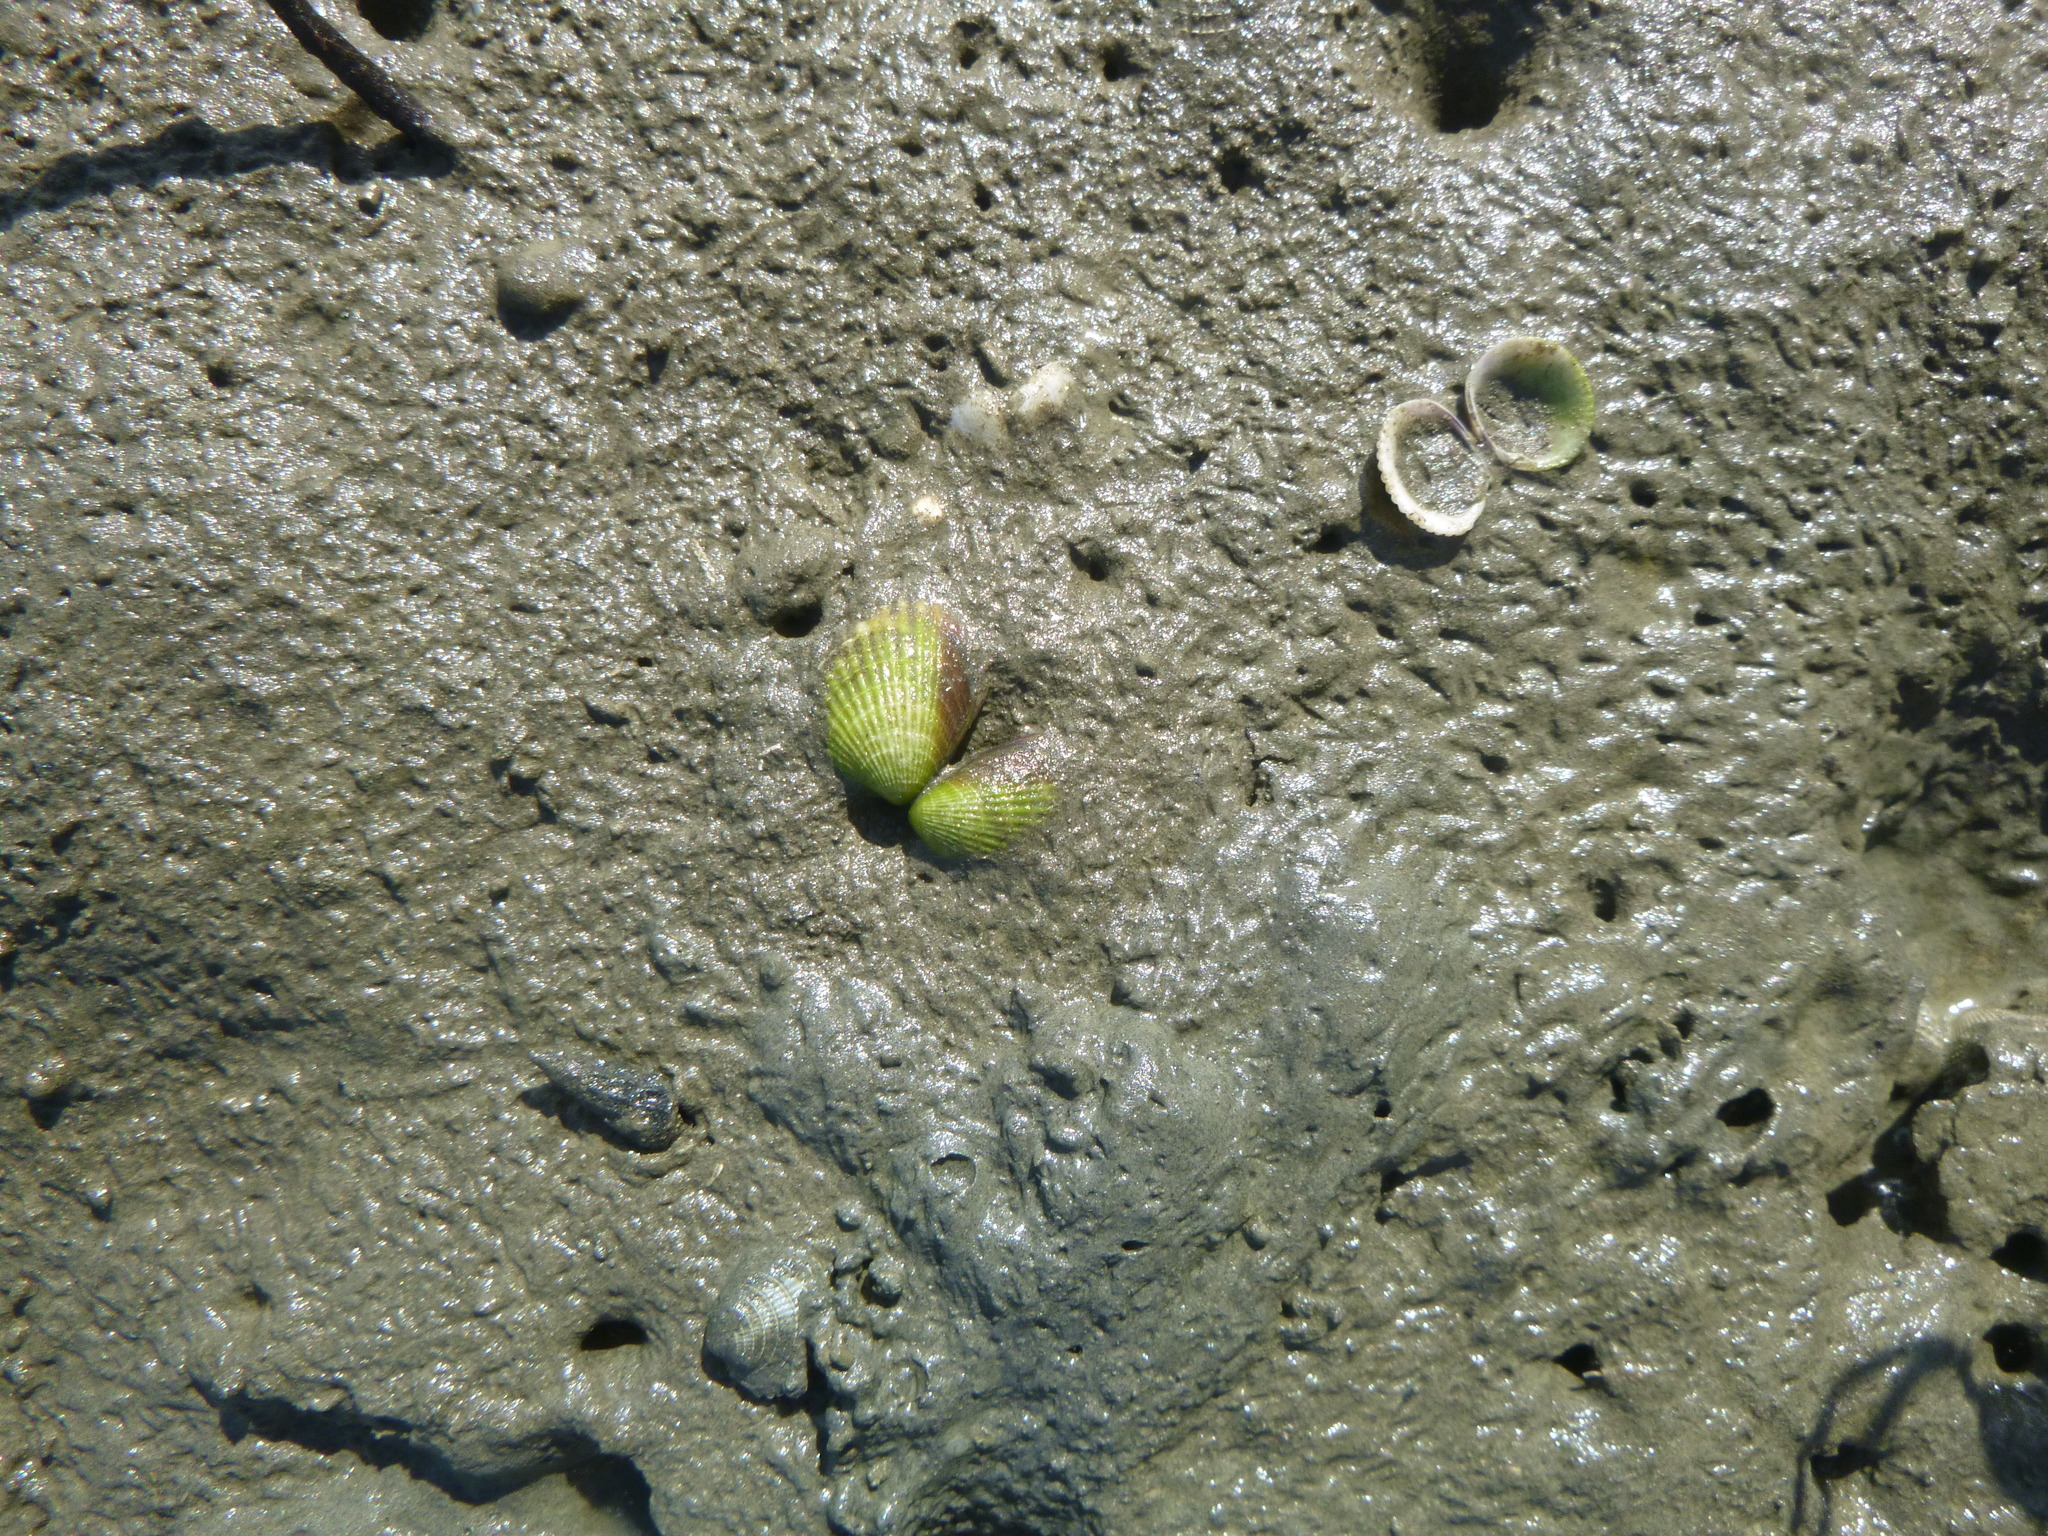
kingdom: Animalia
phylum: Mollusca
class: Bivalvia
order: Venerida
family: Veneridae
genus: Austrovenus
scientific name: Austrovenus stutchburyi
